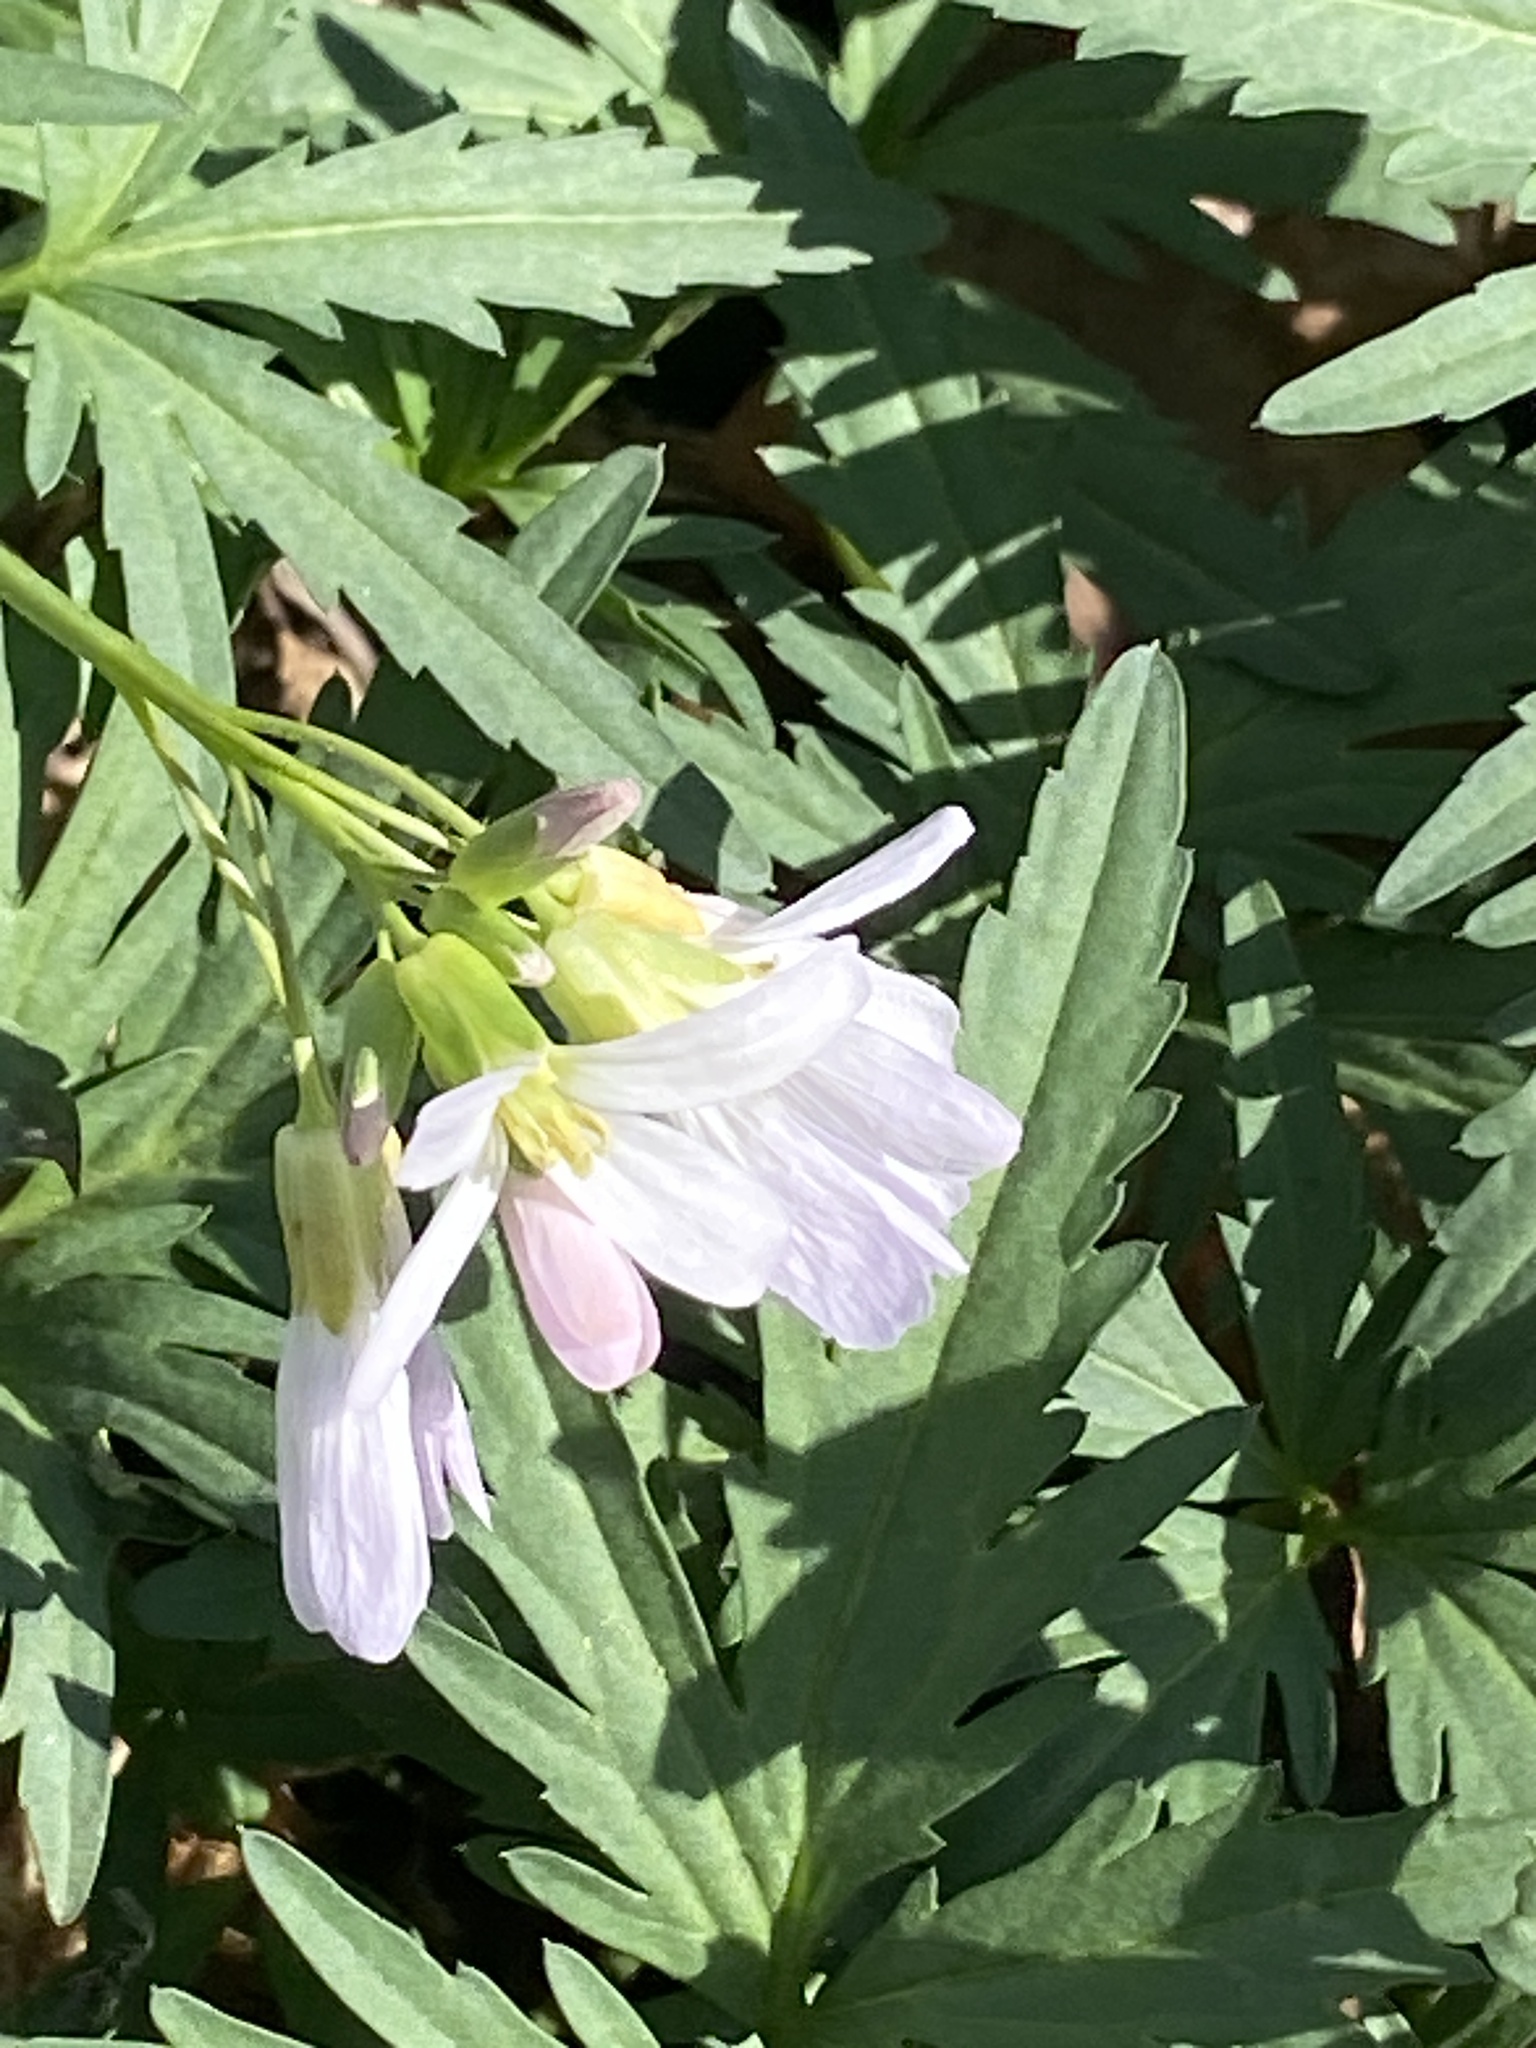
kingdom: Plantae
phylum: Tracheophyta
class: Magnoliopsida
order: Brassicales
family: Brassicaceae
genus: Cardamine
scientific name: Cardamine concatenata
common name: Cut-leaf toothcup
